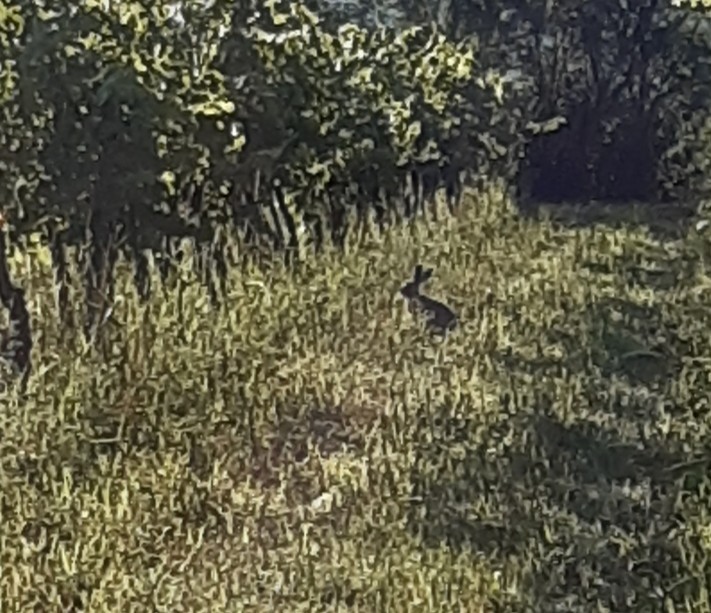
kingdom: Animalia
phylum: Chordata
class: Mammalia
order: Lagomorpha
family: Leporidae
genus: Lepus
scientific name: Lepus europaeus
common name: European hare
